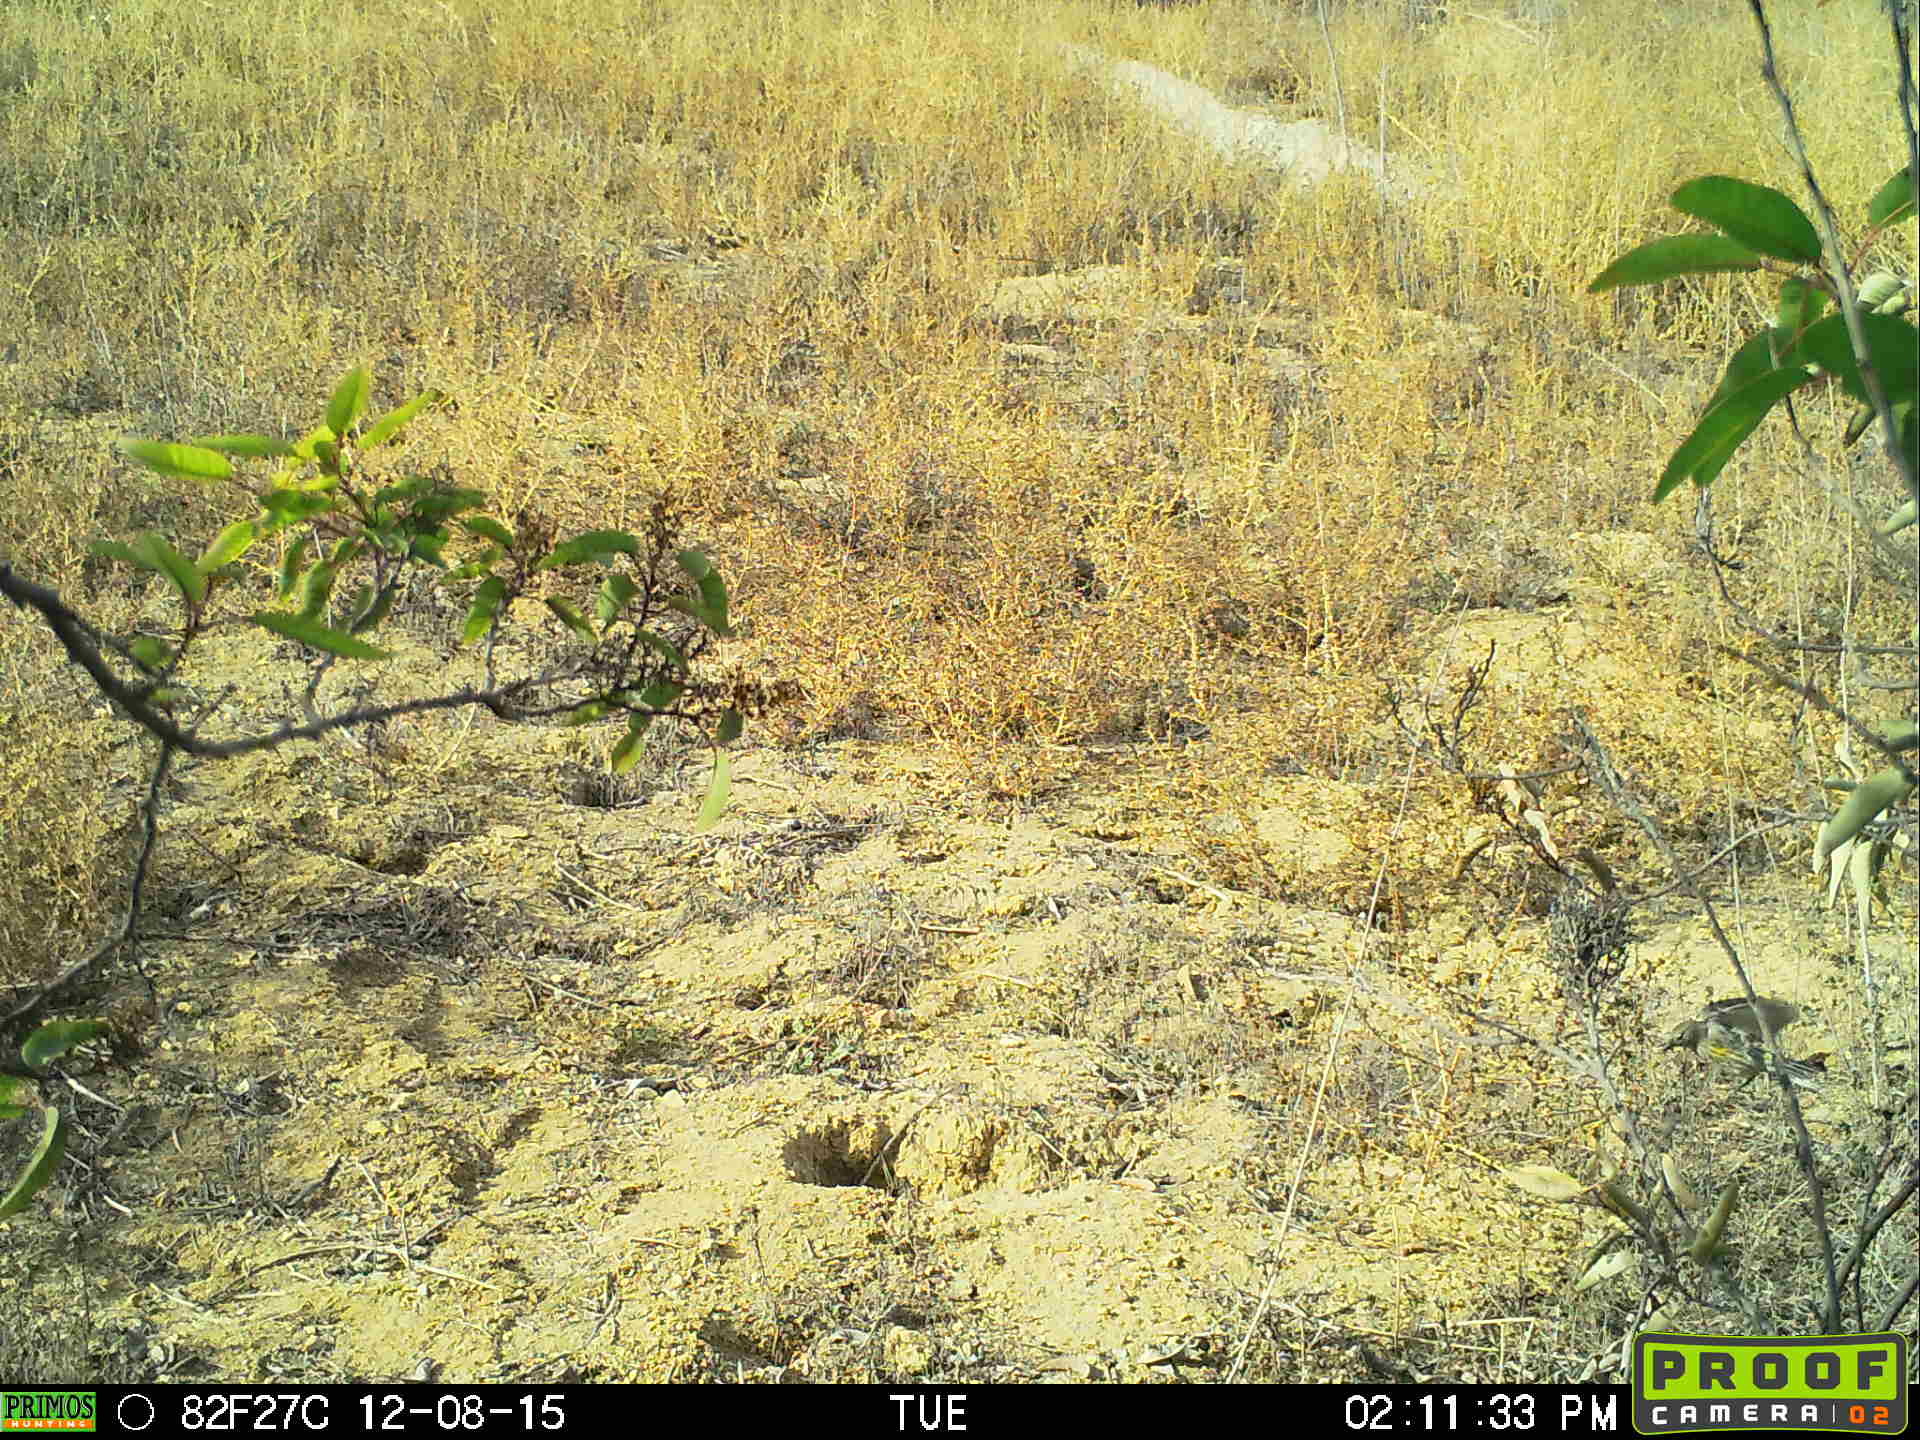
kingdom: Animalia
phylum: Chordata
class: Aves
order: Passeriformes
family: Parulidae
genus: Setophaga
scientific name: Setophaga coronata
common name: Myrtle warbler
